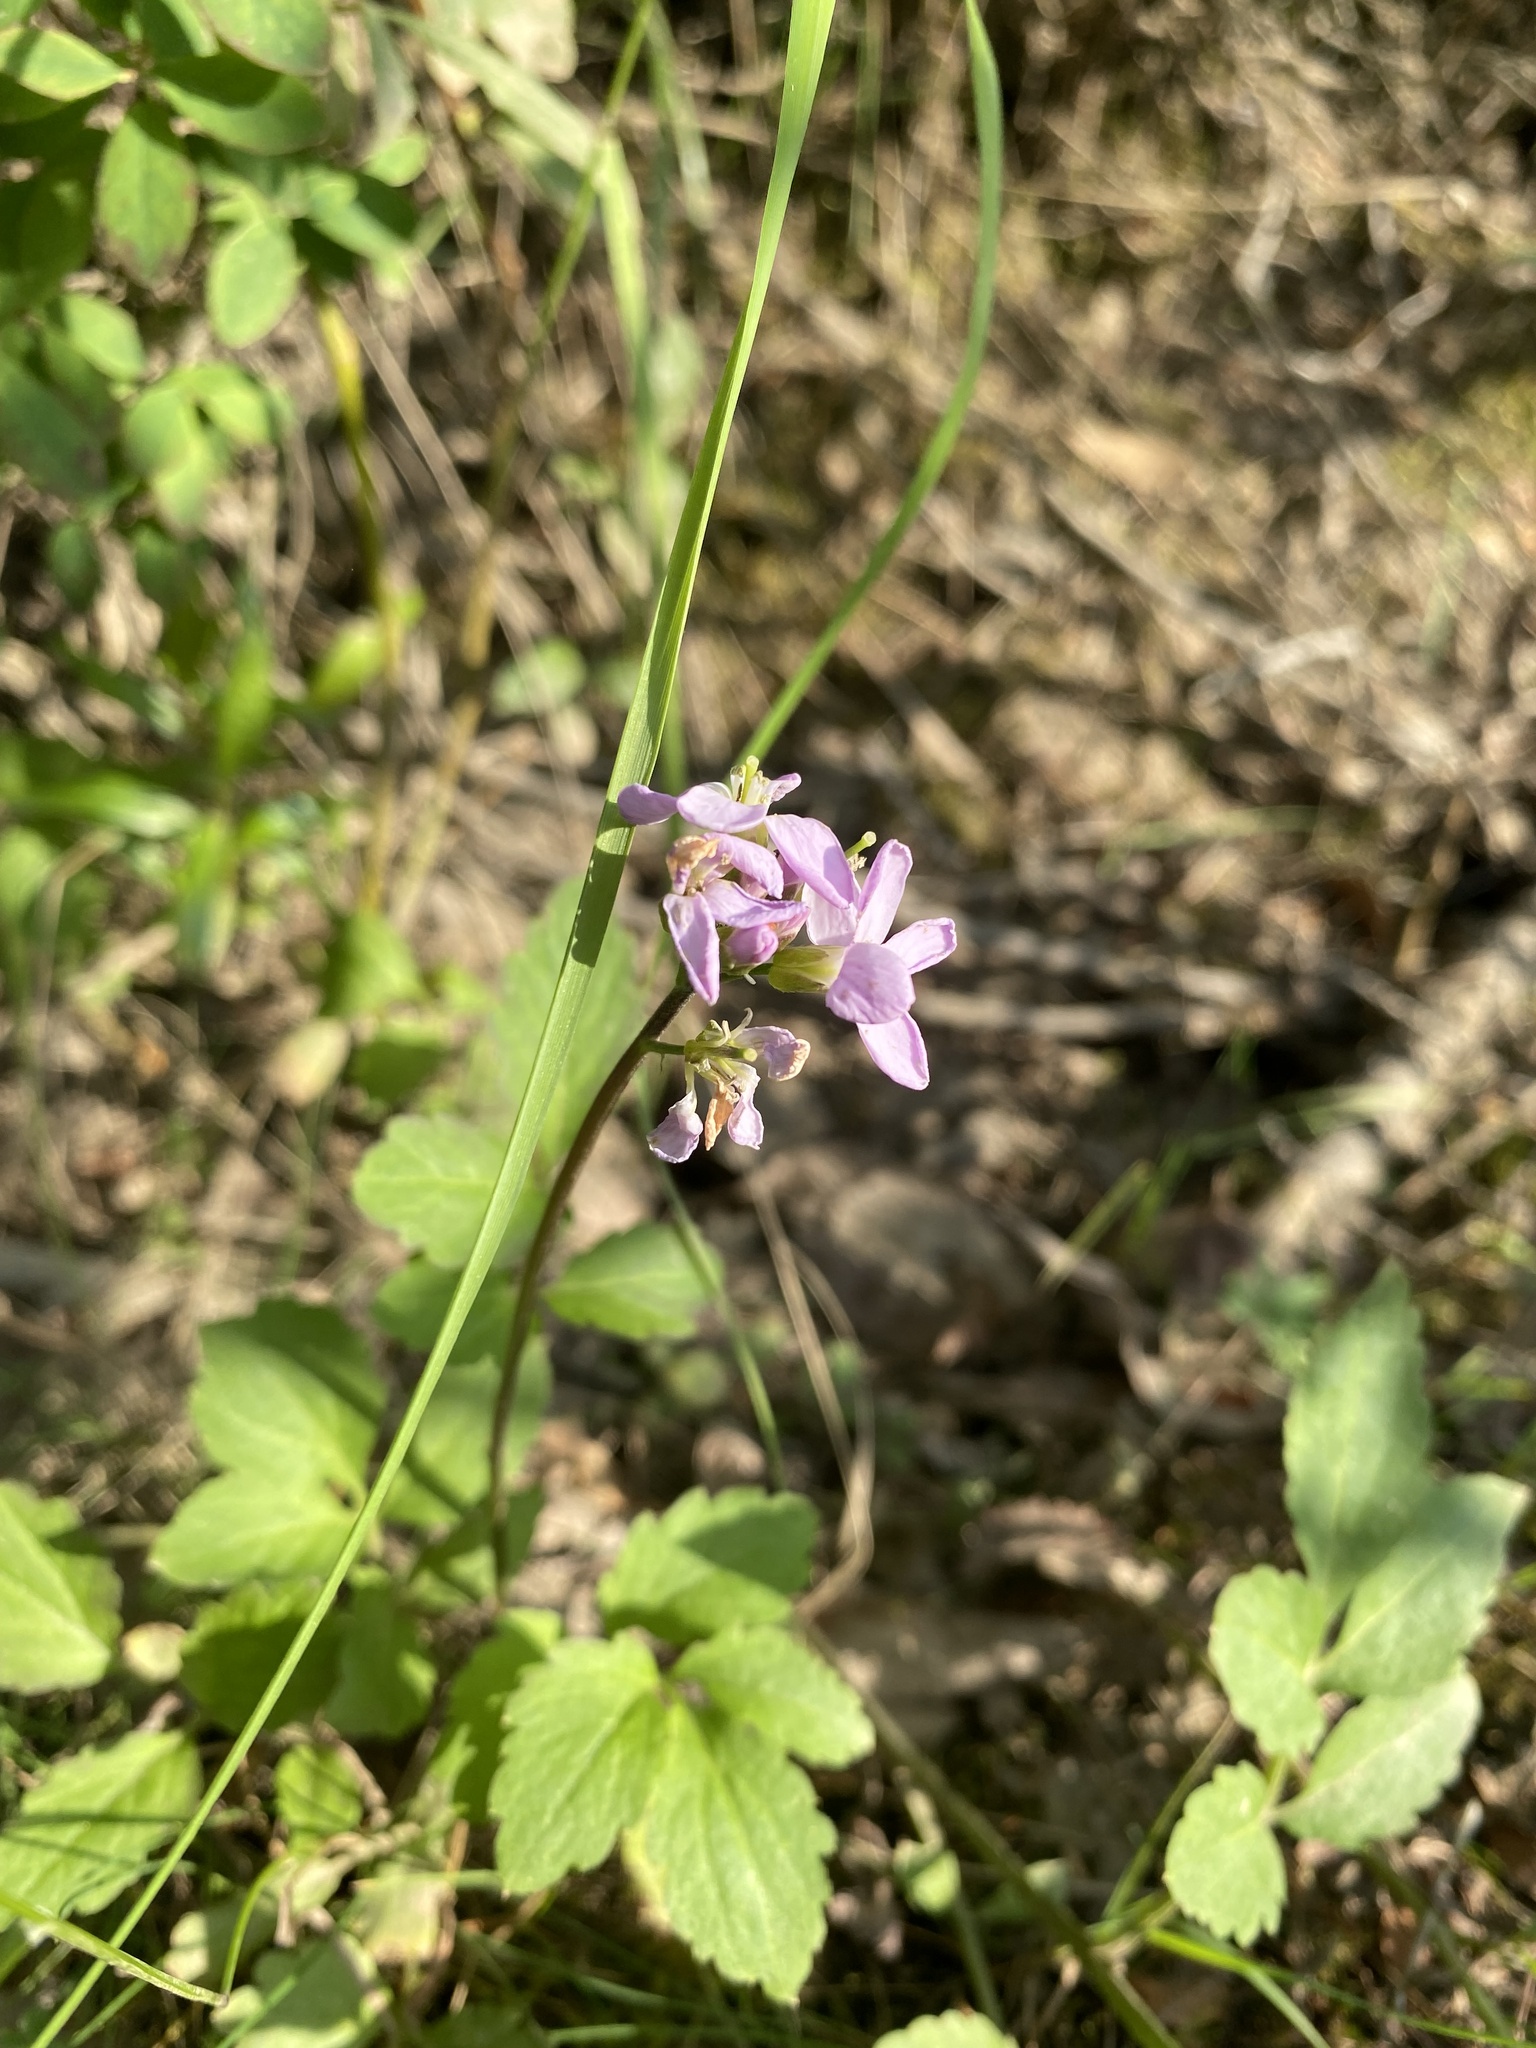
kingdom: Plantae
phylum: Tracheophyta
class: Magnoliopsida
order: Brassicales
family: Brassicaceae
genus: Cardamine
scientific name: Cardamine macrophylla
